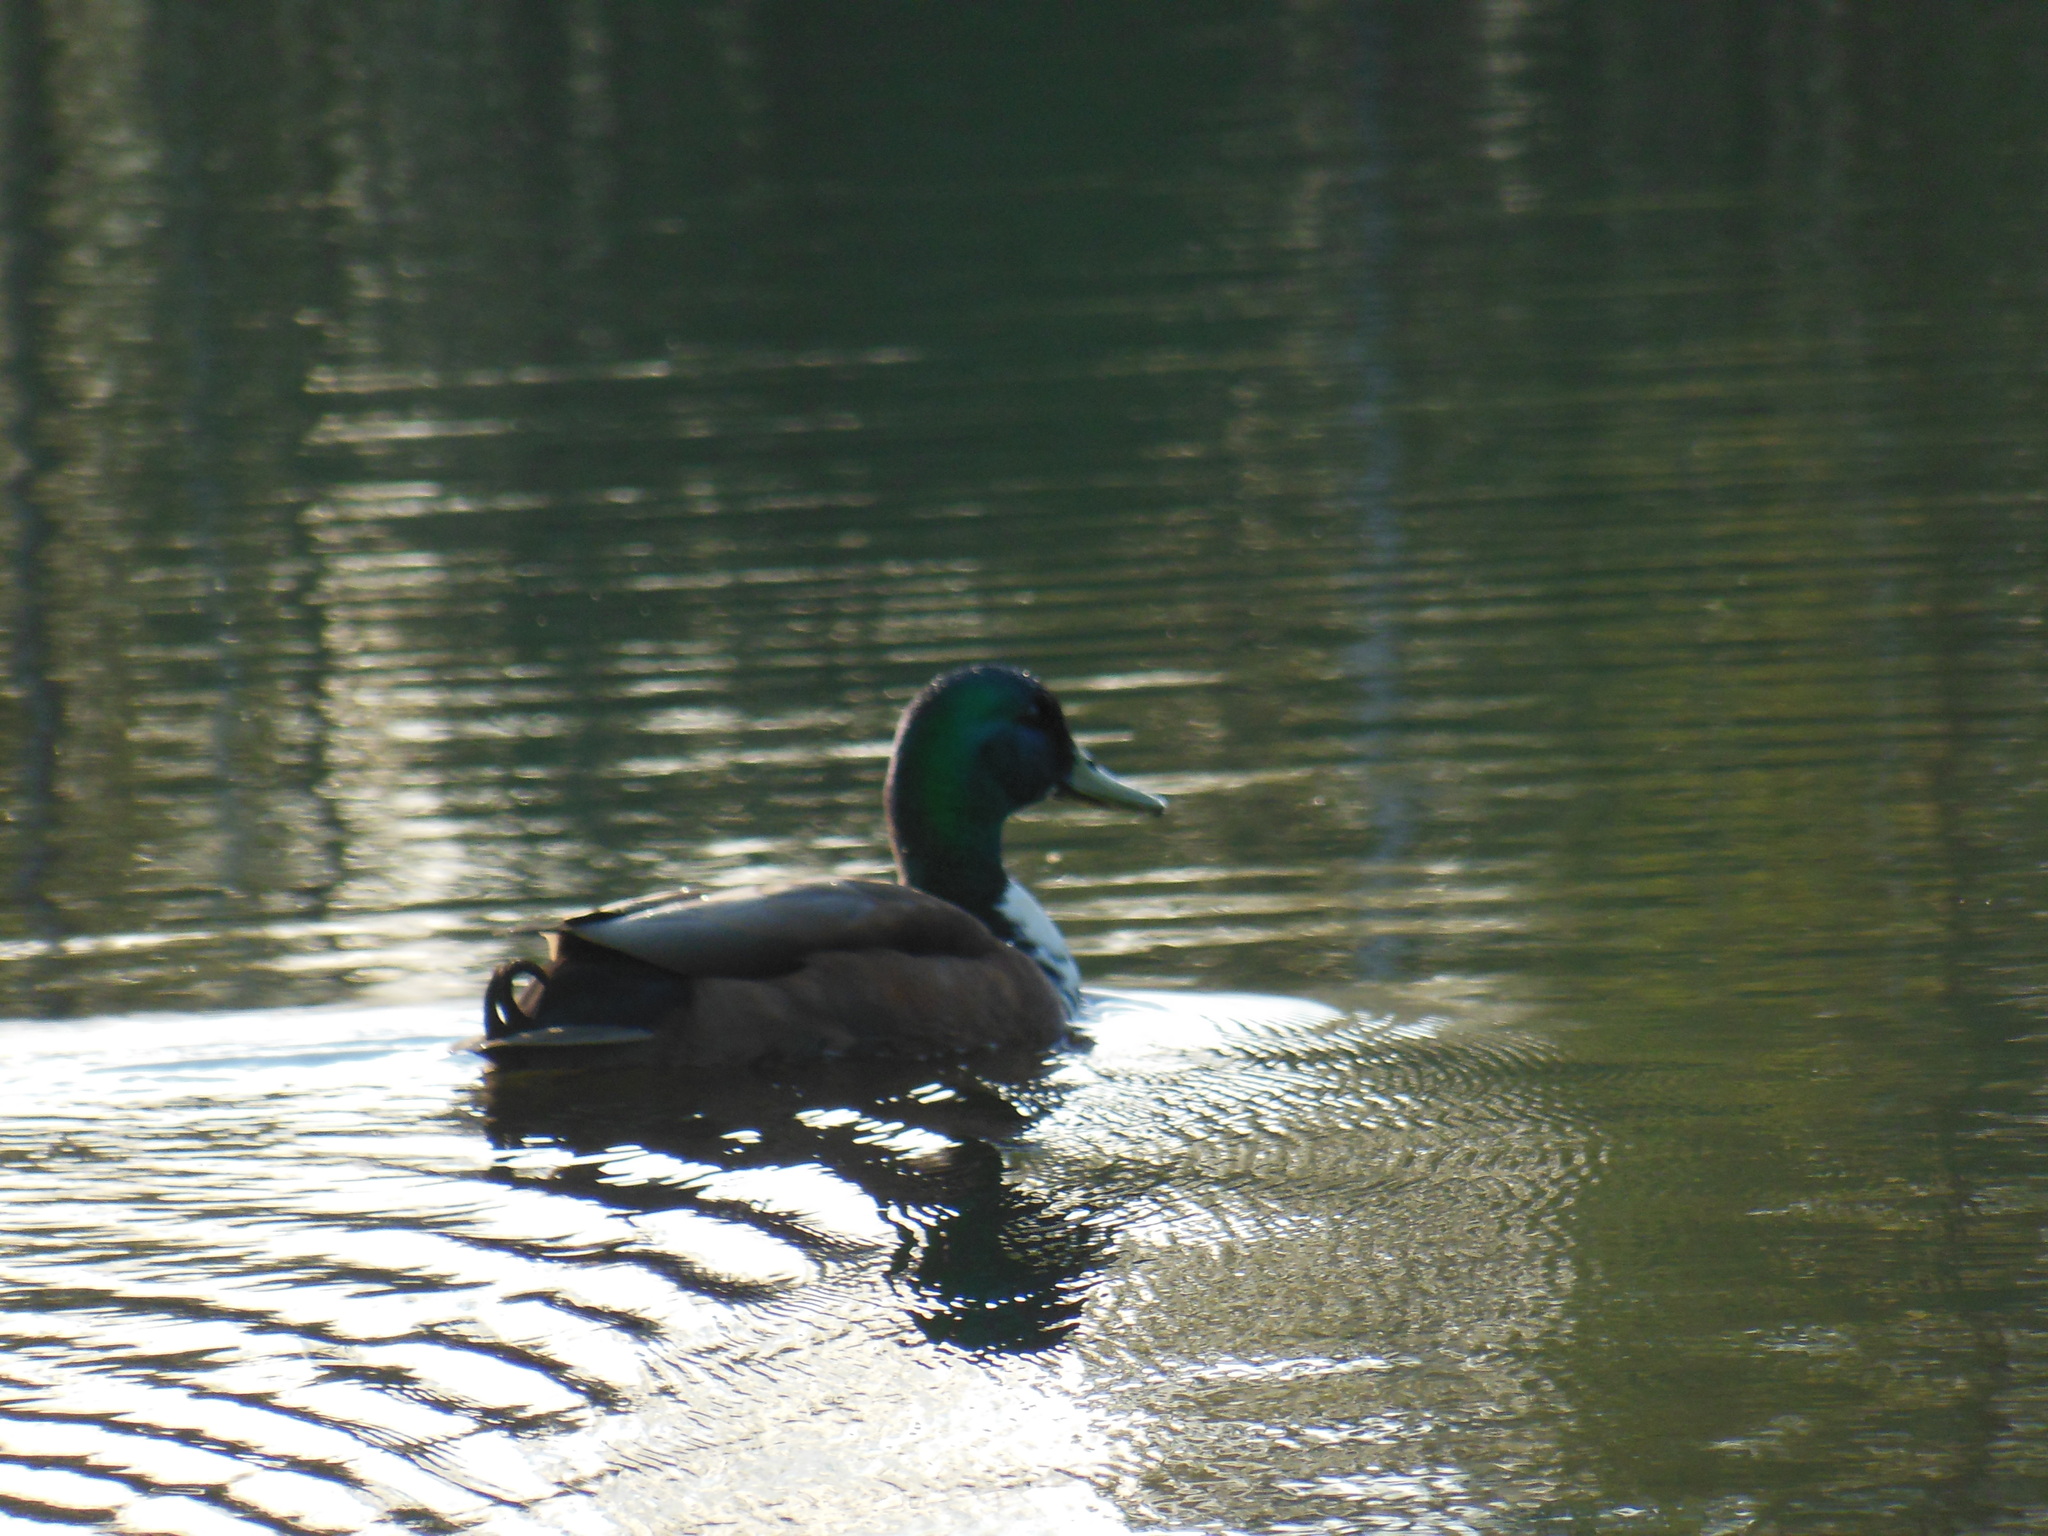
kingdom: Animalia
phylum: Chordata
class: Aves
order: Anseriformes
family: Anatidae
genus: Anas
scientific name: Anas platyrhynchos
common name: Mallard
